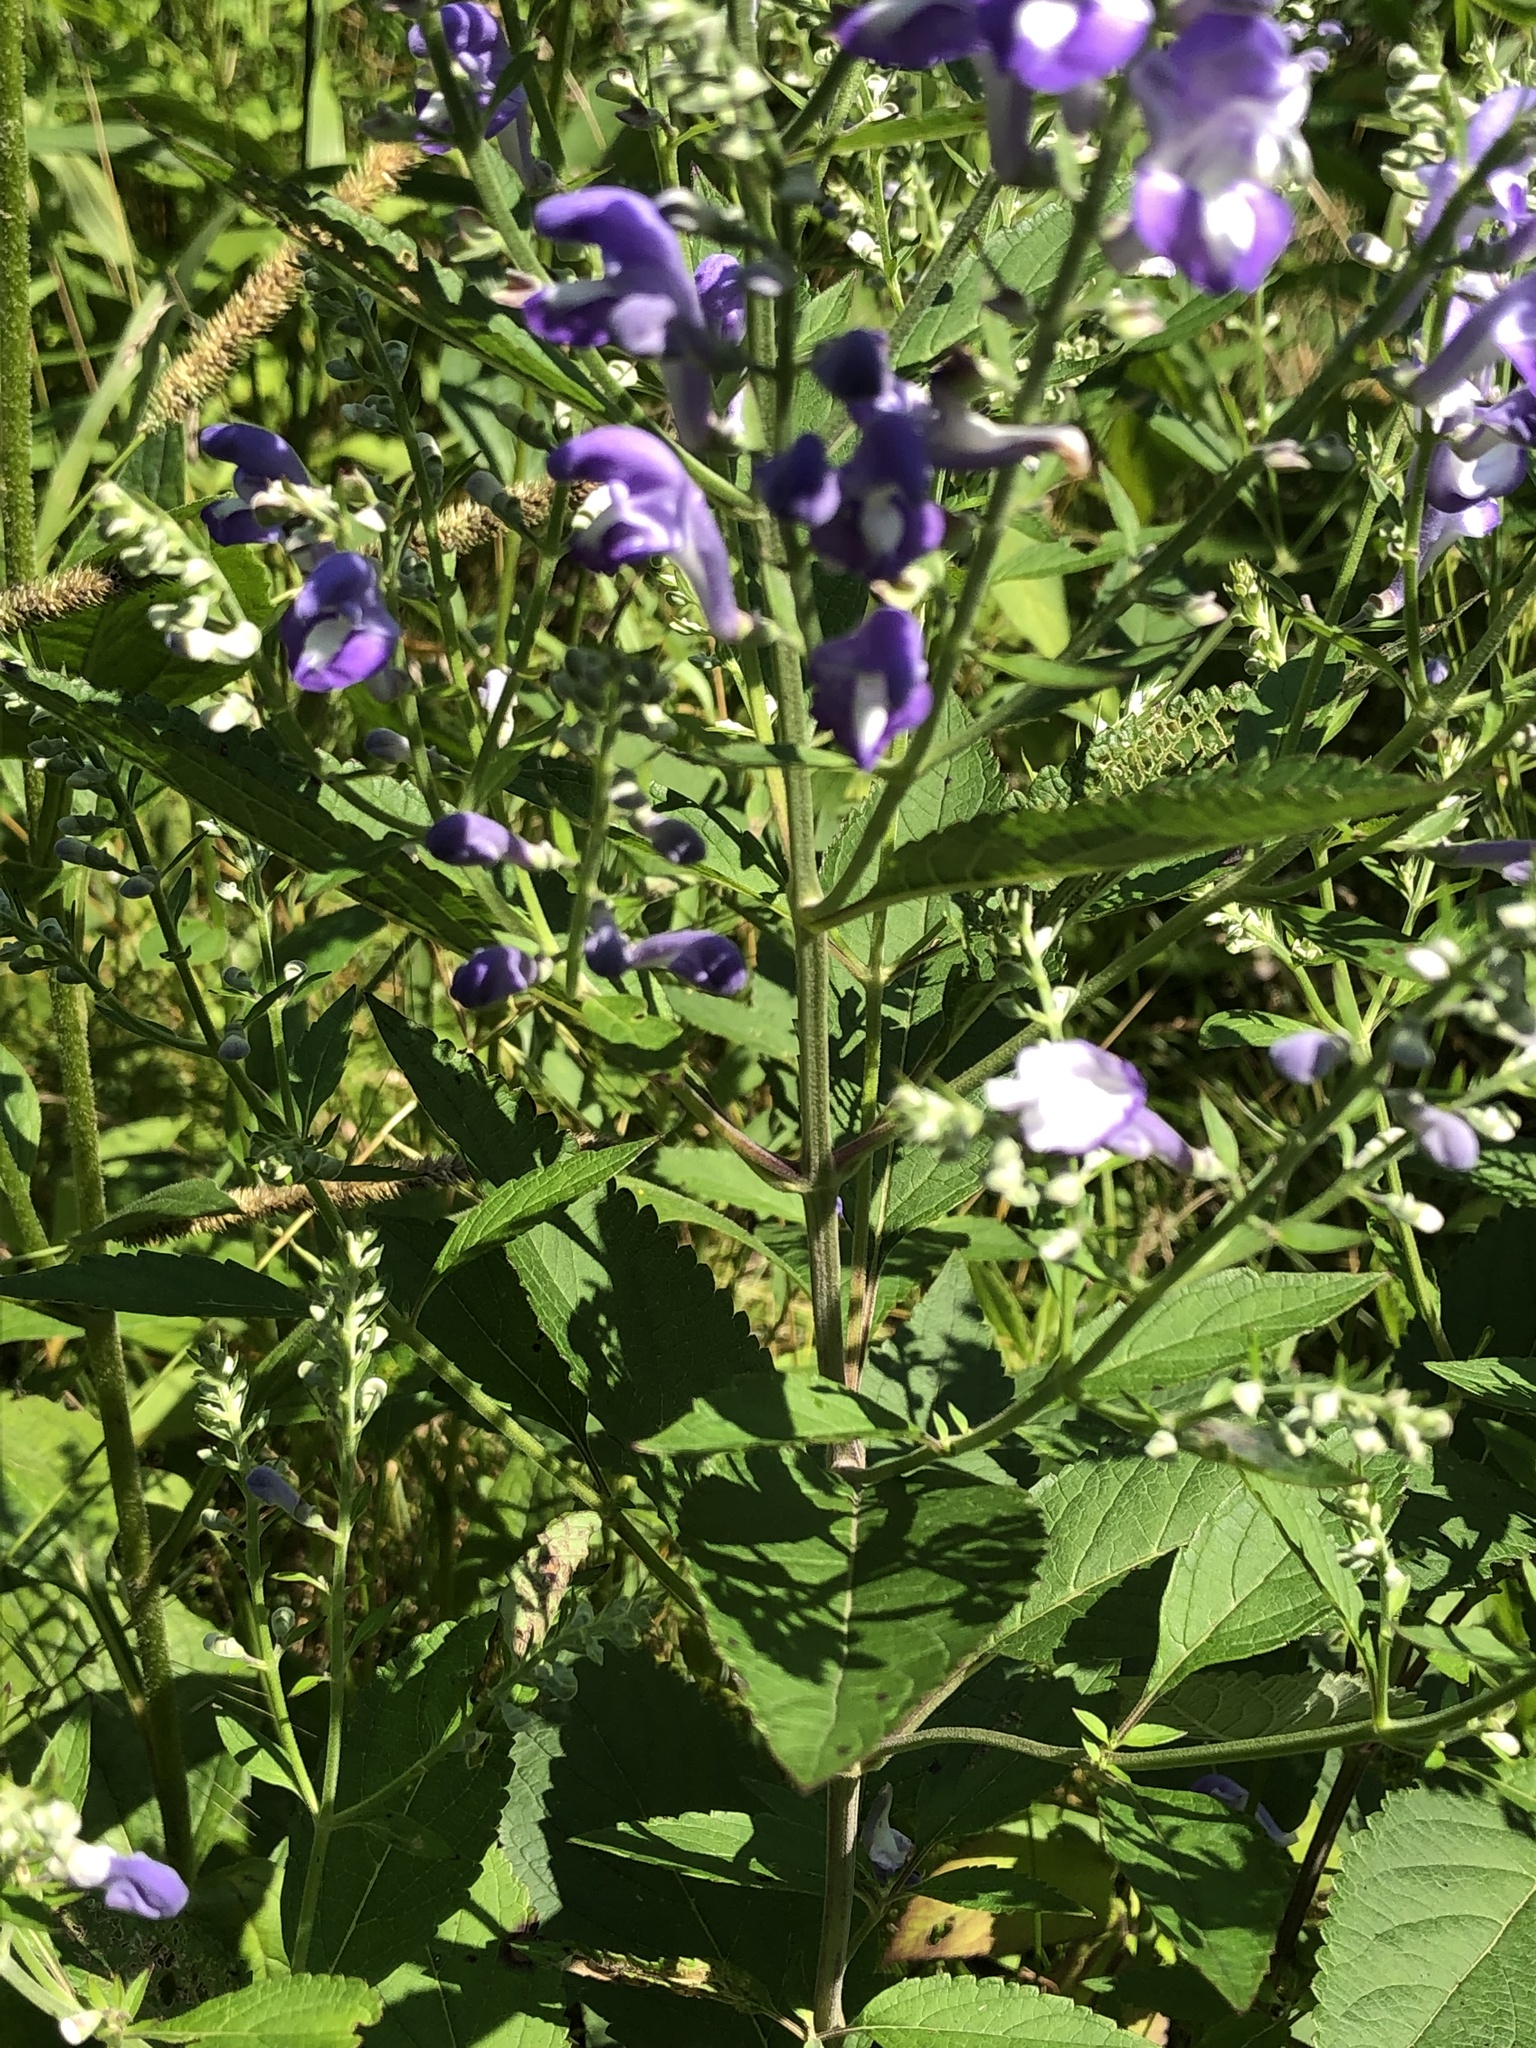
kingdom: Plantae
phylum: Tracheophyta
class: Magnoliopsida
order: Lamiales
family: Lamiaceae
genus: Scutellaria
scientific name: Scutellaria incana
